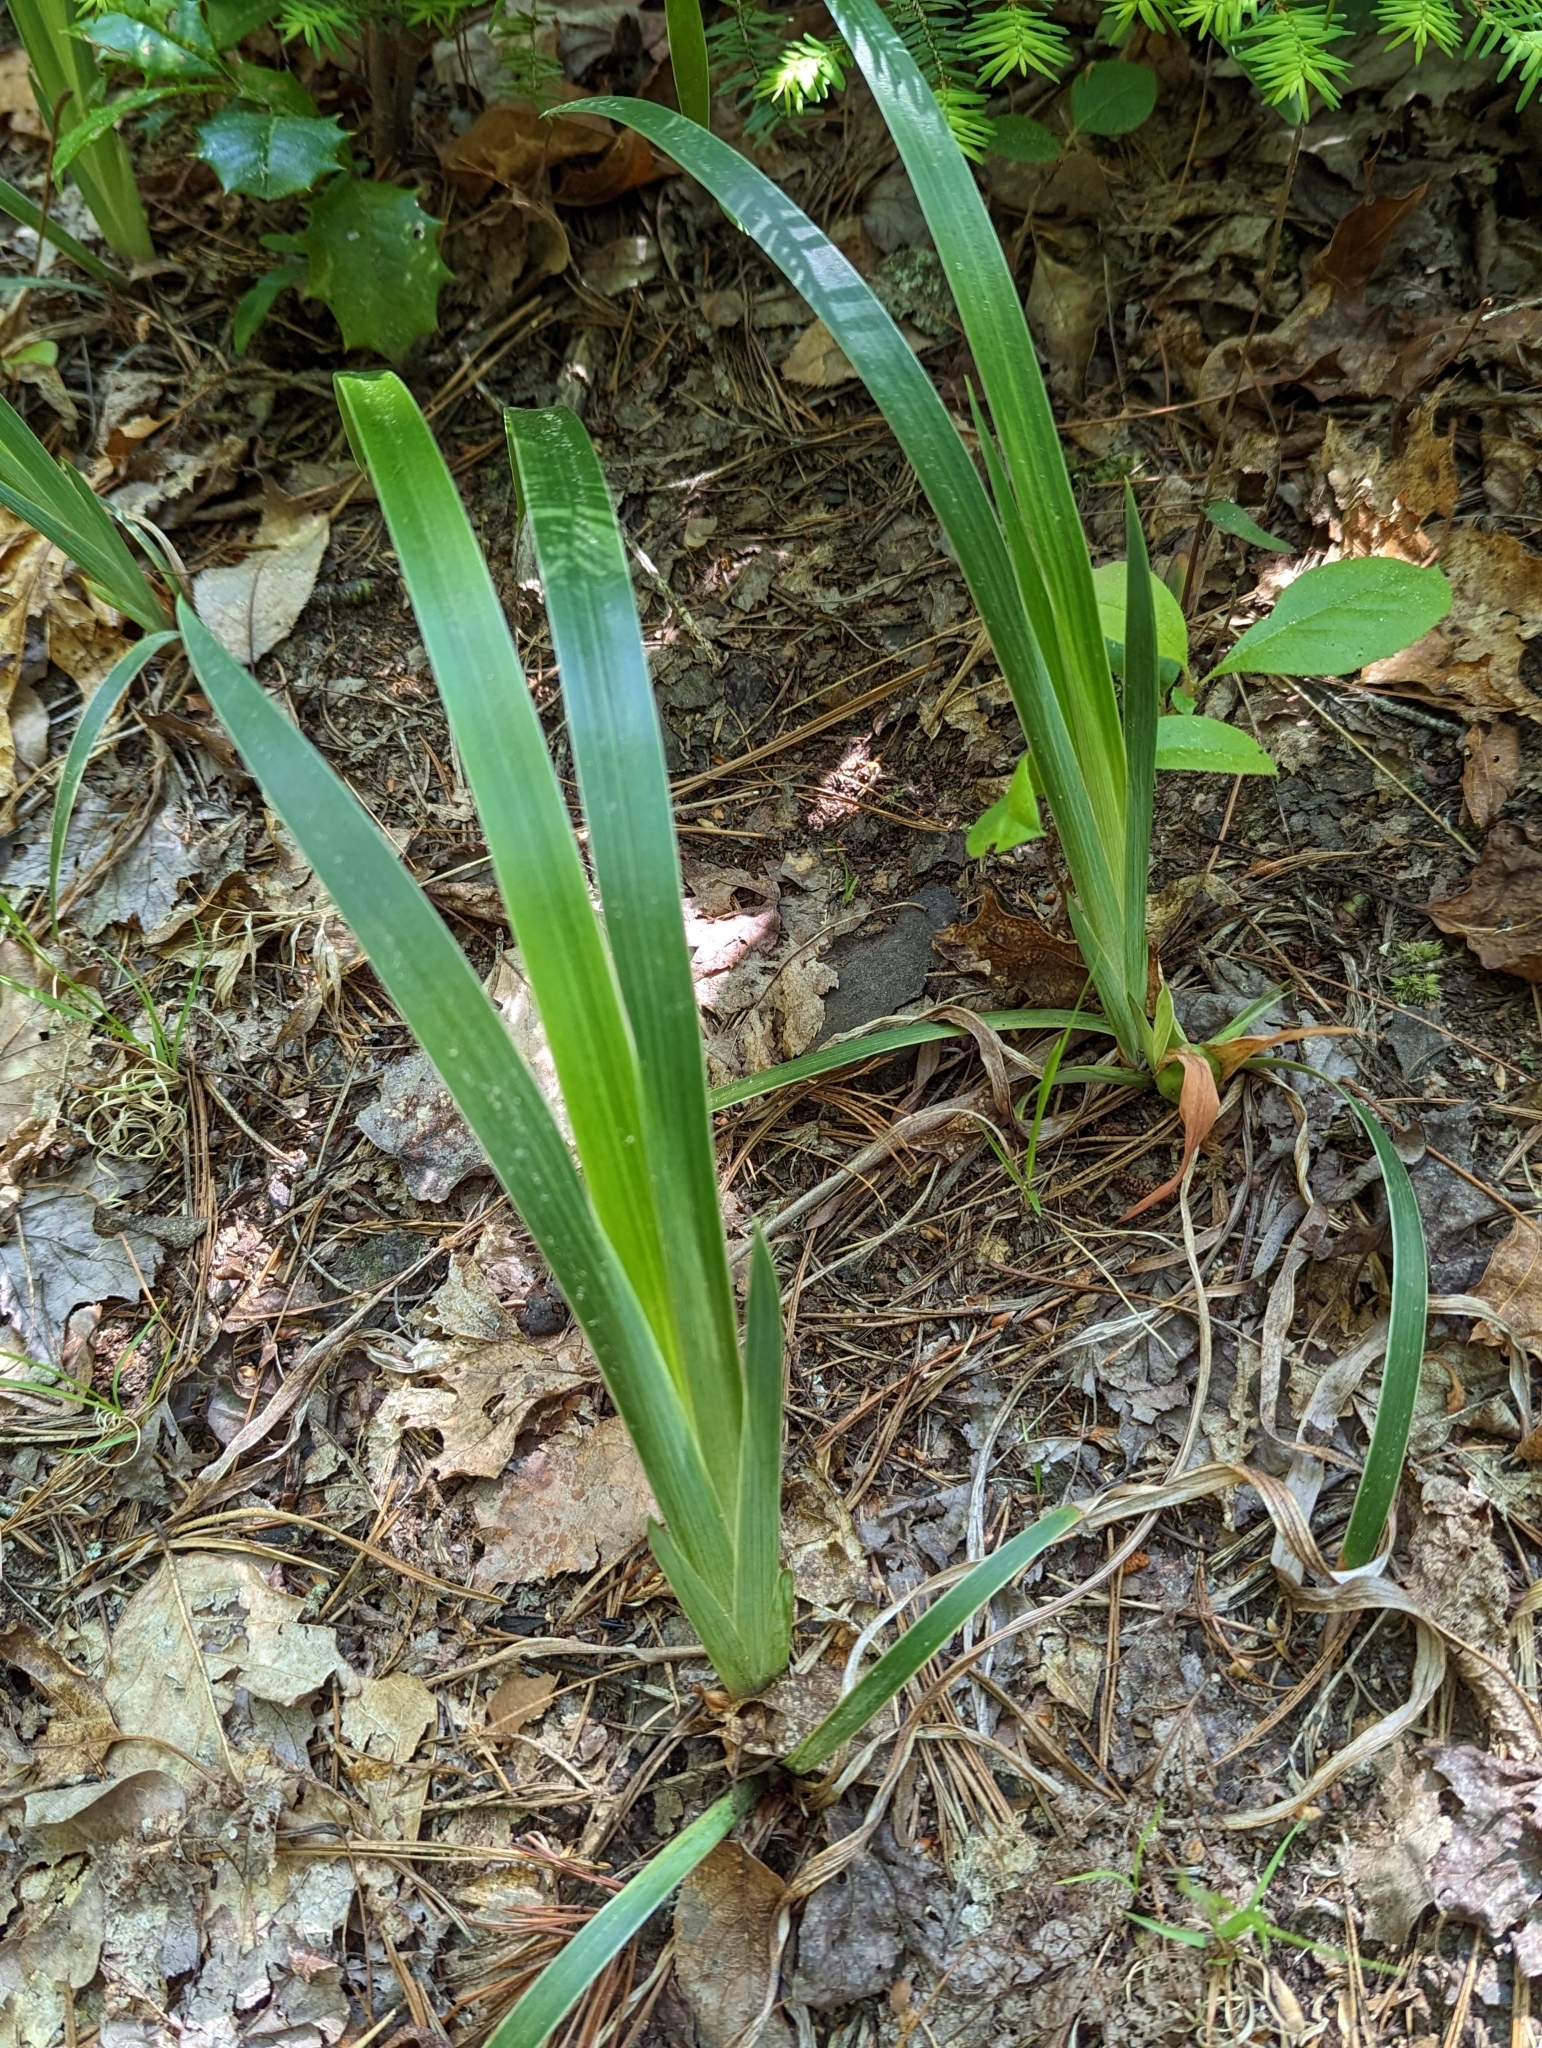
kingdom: Plantae
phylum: Tracheophyta
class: Liliopsida
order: Asparagales
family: Iridaceae
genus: Iris
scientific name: Iris verna
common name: Dwarf iris
